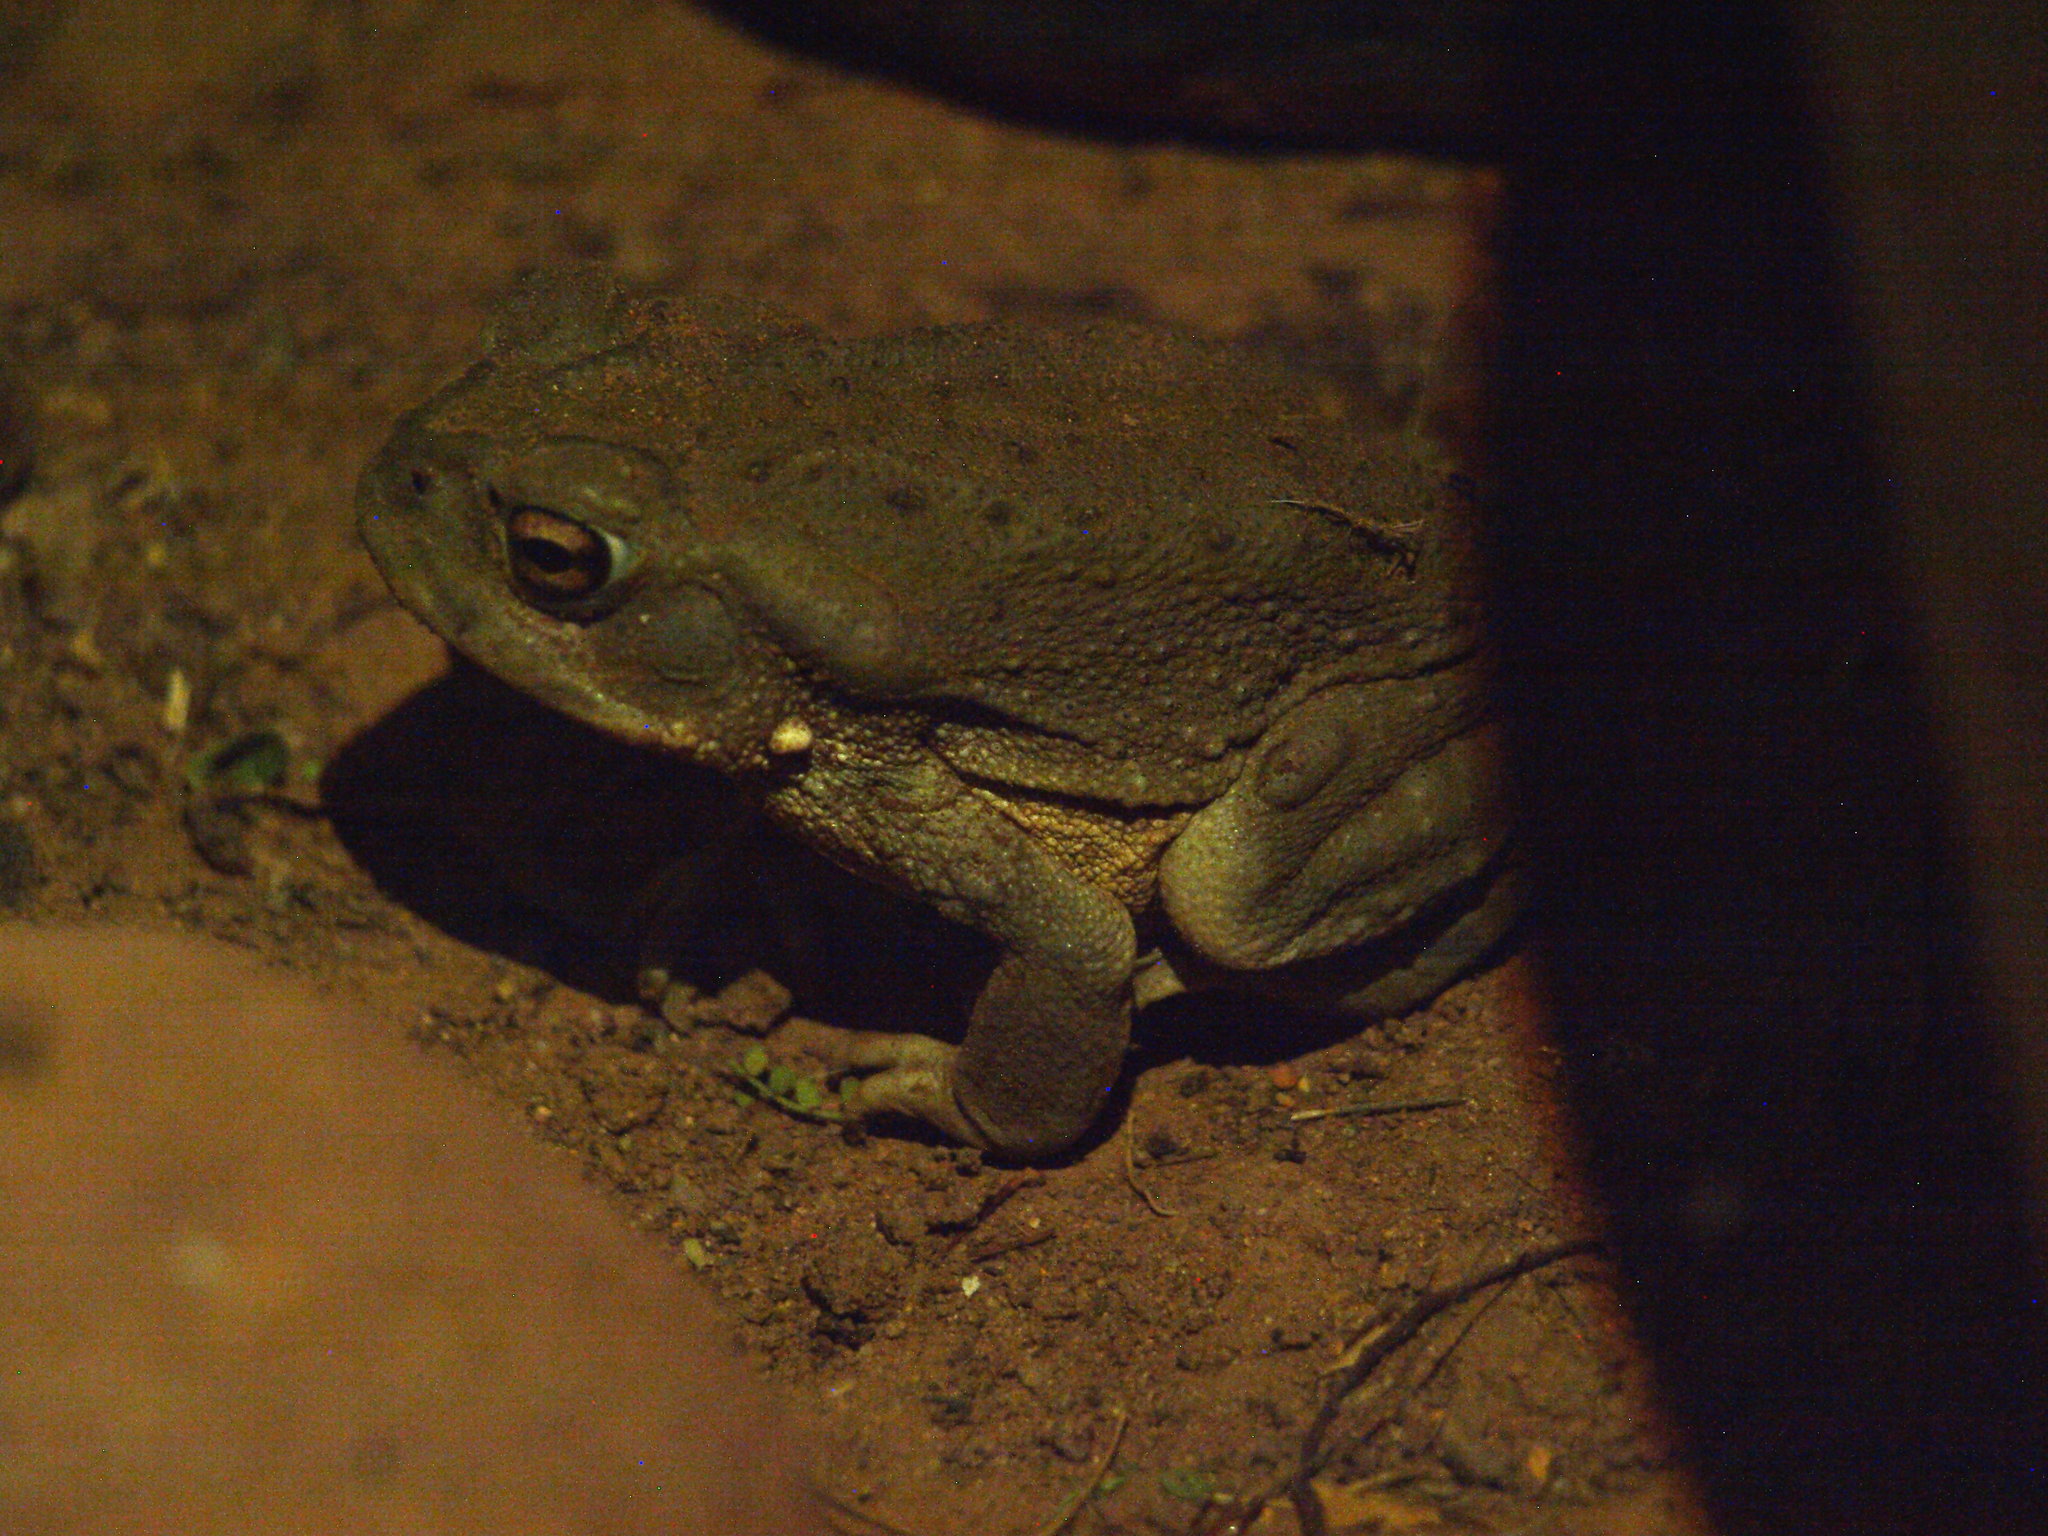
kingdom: Animalia
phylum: Chordata
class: Amphibia
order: Anura
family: Bufonidae
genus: Incilius
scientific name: Incilius alvarius
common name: Sonoran desert toad
